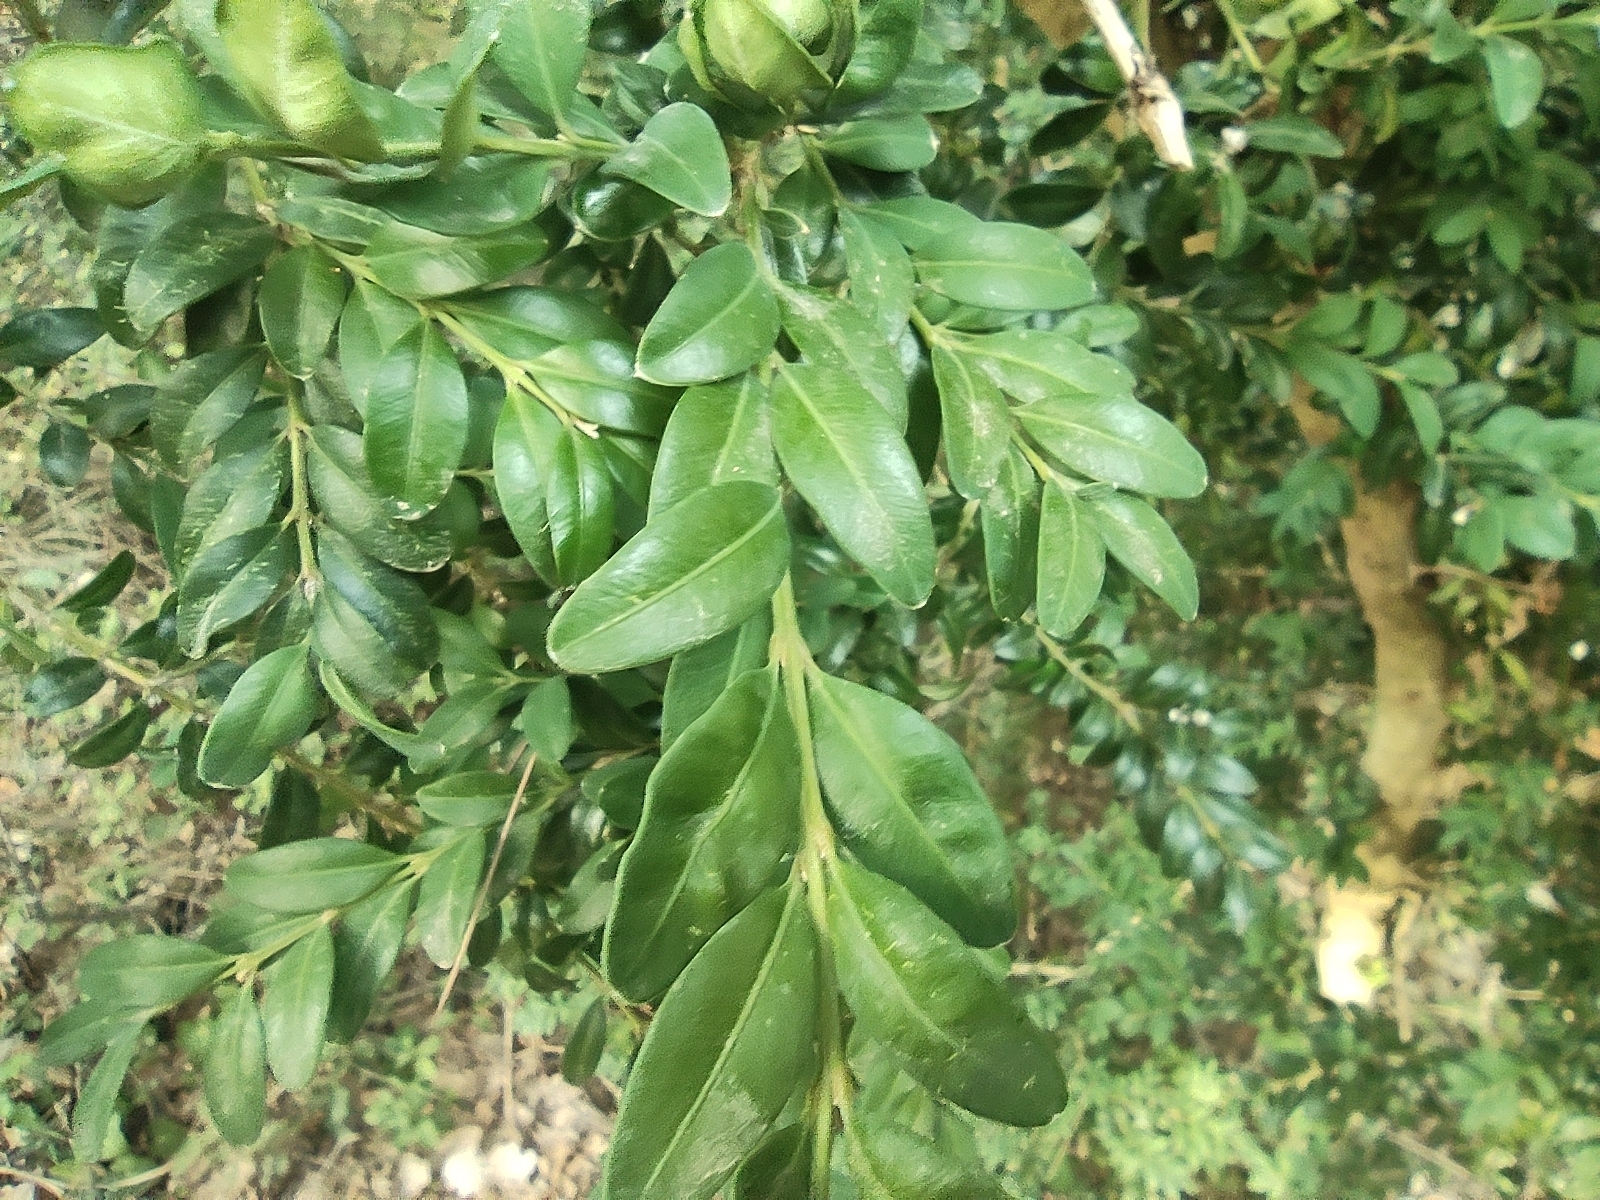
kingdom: Plantae
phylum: Tracheophyta
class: Magnoliopsida
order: Buxales
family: Buxaceae
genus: Buxus
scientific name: Buxus sempervirens
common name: Box
